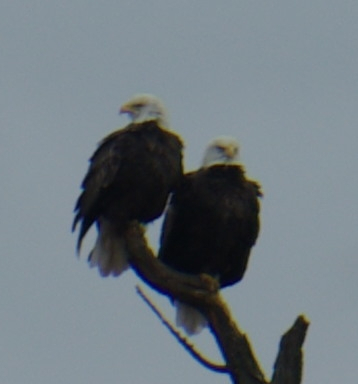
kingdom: Animalia
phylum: Chordata
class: Aves
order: Accipitriformes
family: Accipitridae
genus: Haliaeetus
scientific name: Haliaeetus leucocephalus
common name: Bald eagle
